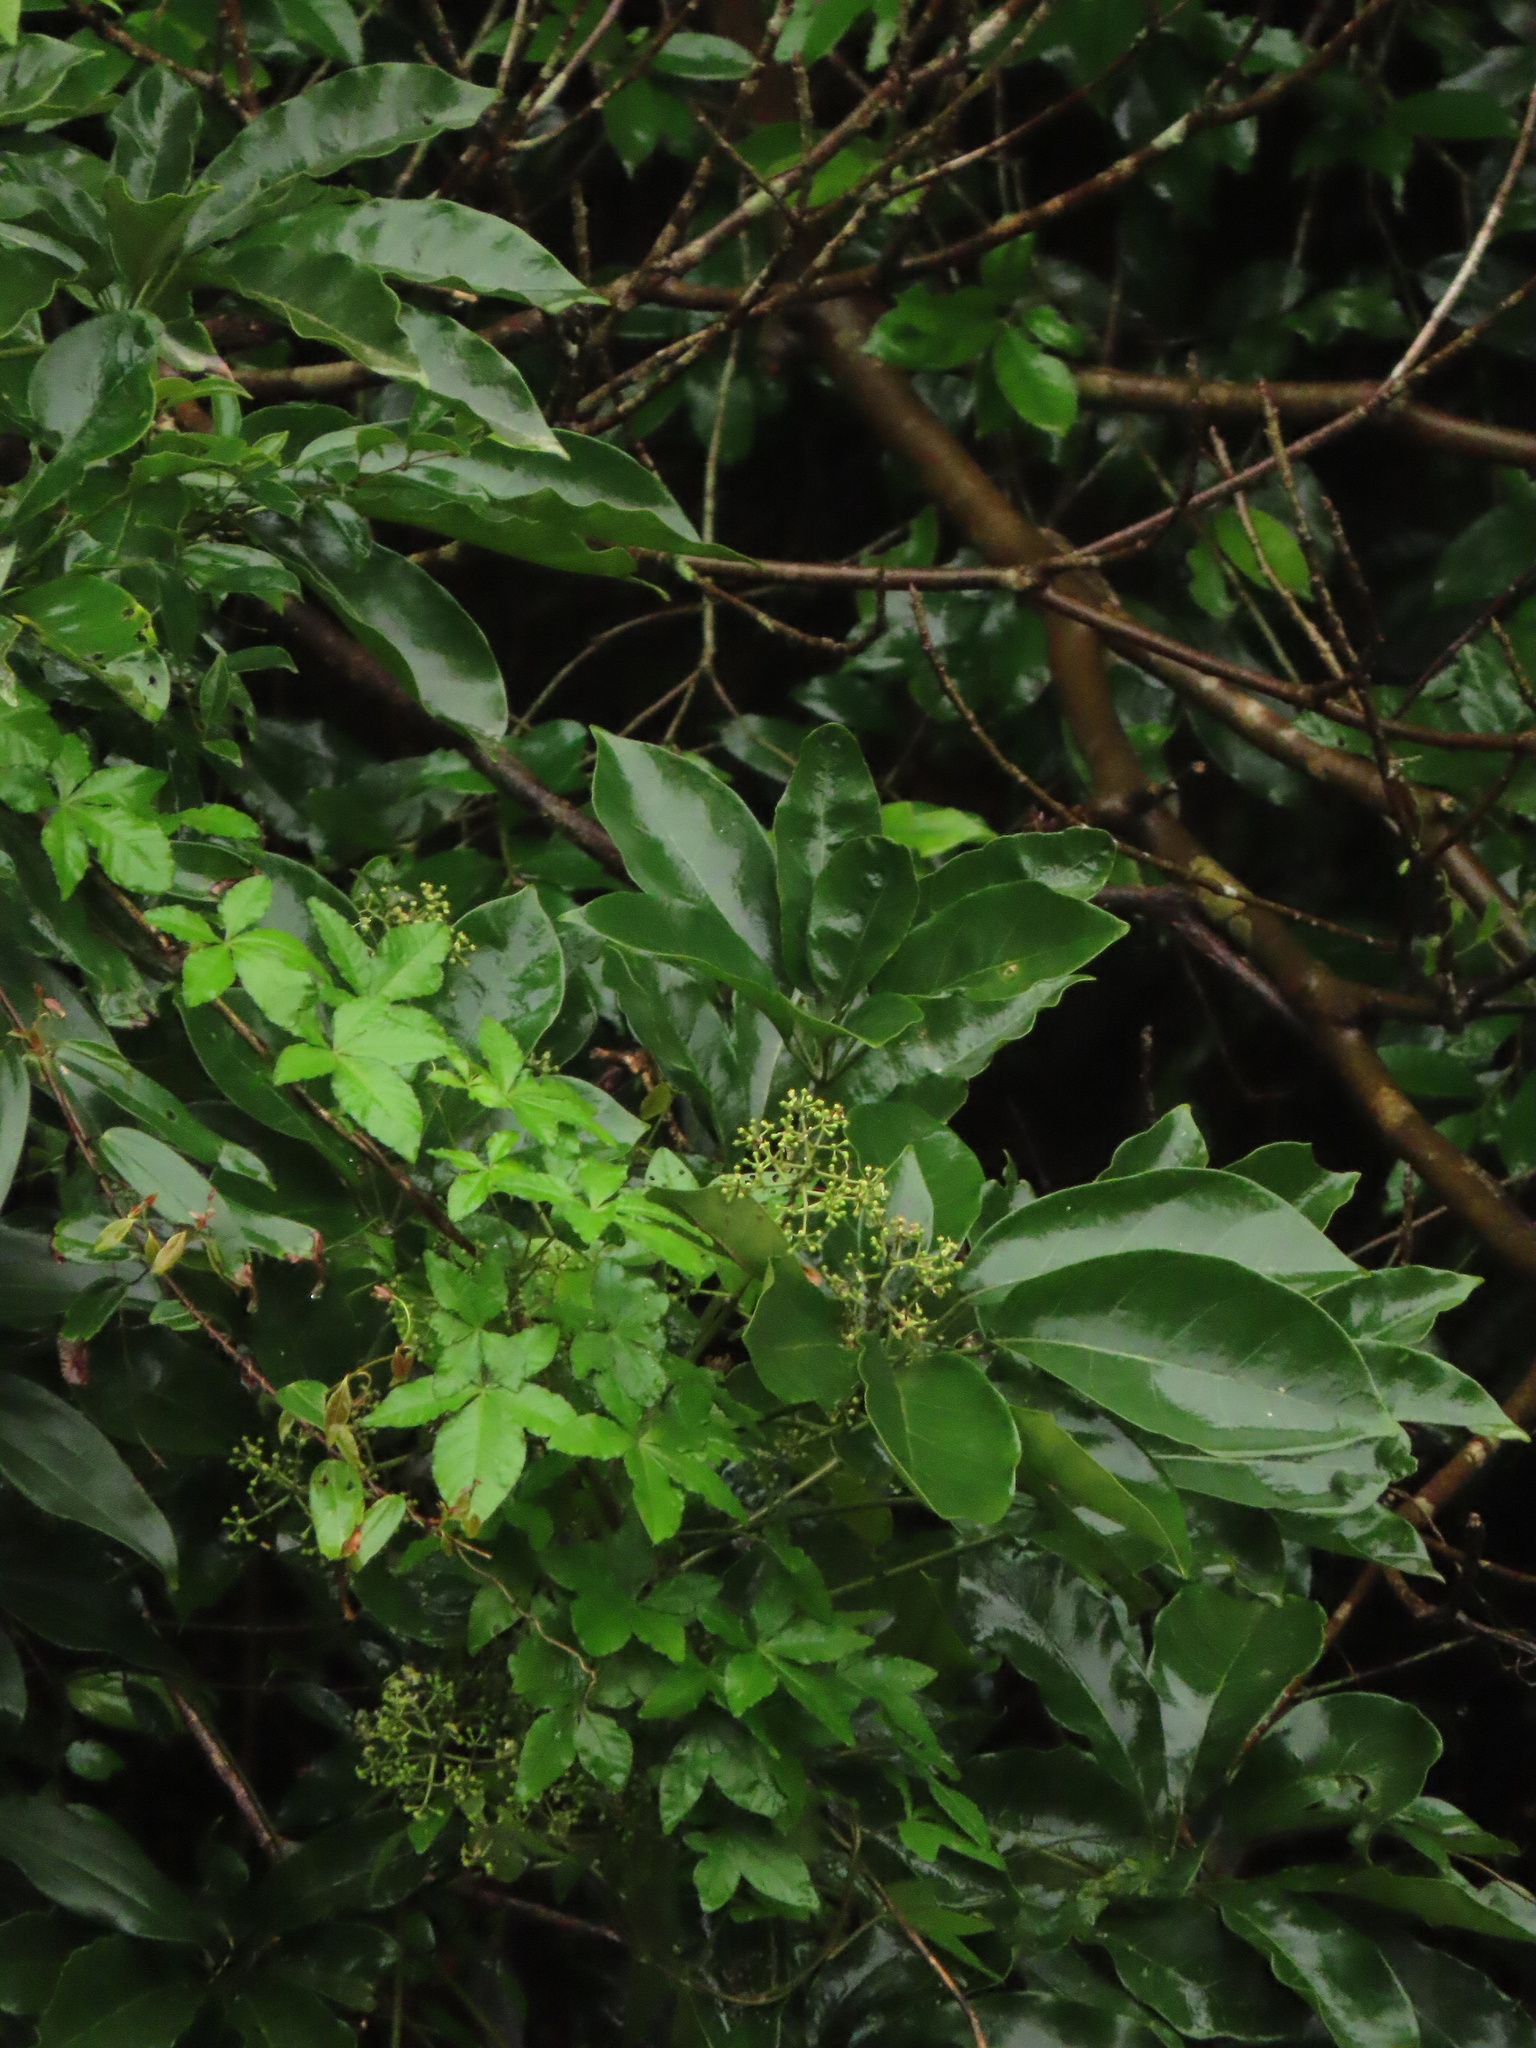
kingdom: Plantae
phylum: Tracheophyta
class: Magnoliopsida
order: Apiales
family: Araliaceae
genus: Heptapleurum
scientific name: Heptapleurum heptaphyllum
